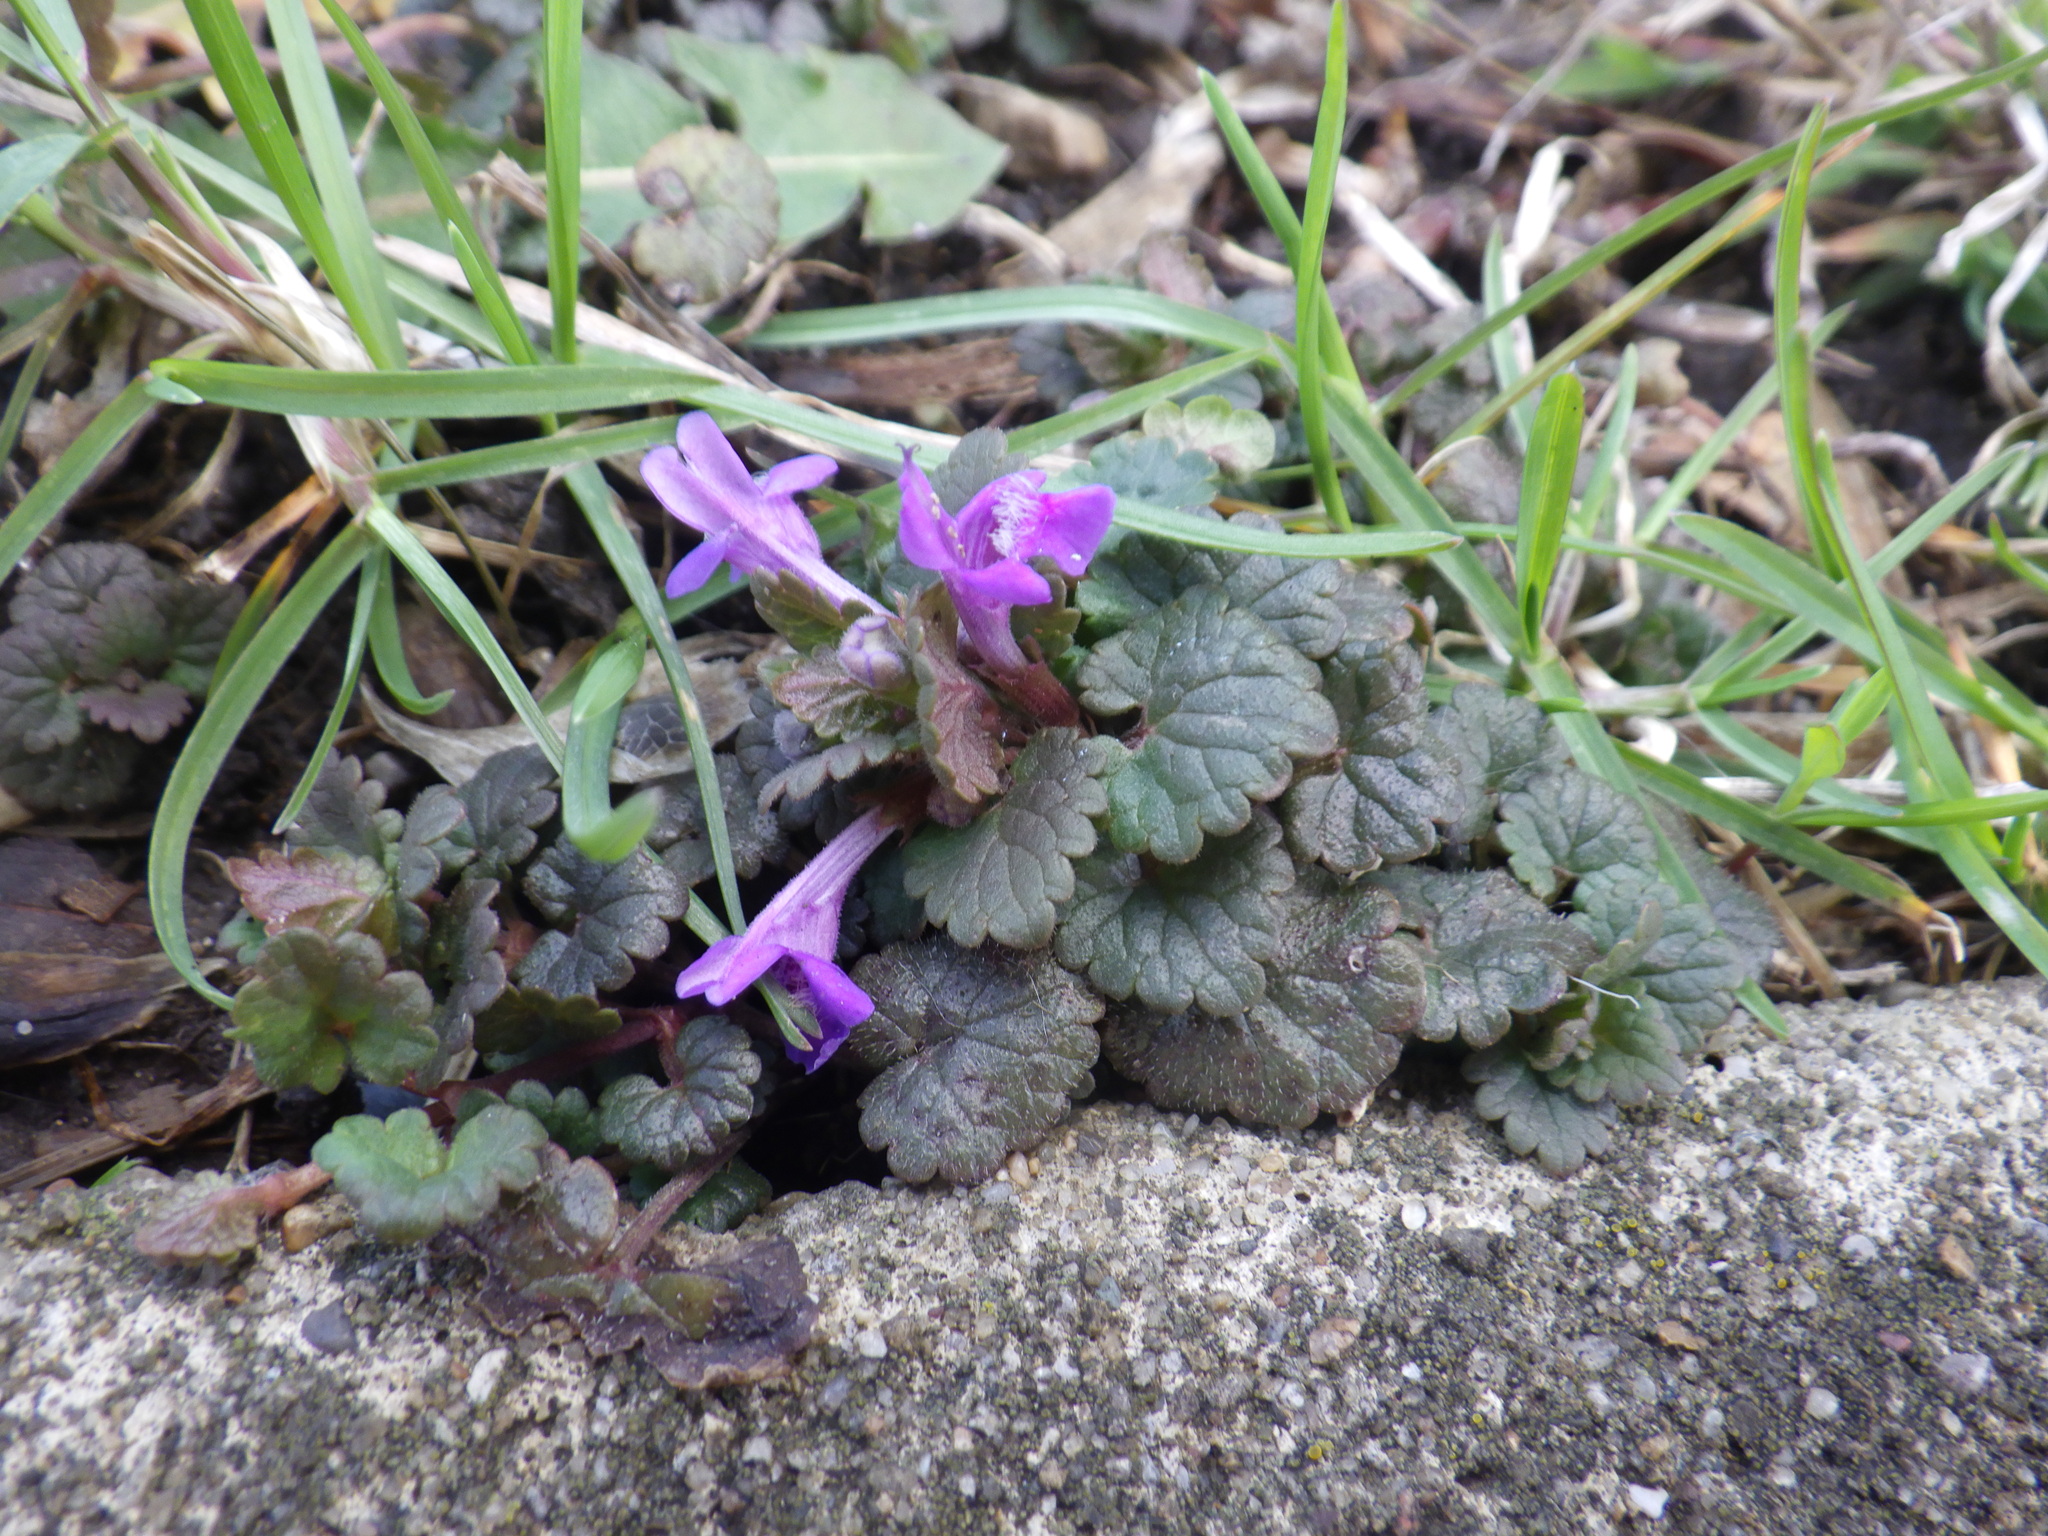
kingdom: Plantae
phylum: Tracheophyta
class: Magnoliopsida
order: Lamiales
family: Lamiaceae
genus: Glechoma
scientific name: Glechoma hederacea
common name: Ground ivy
